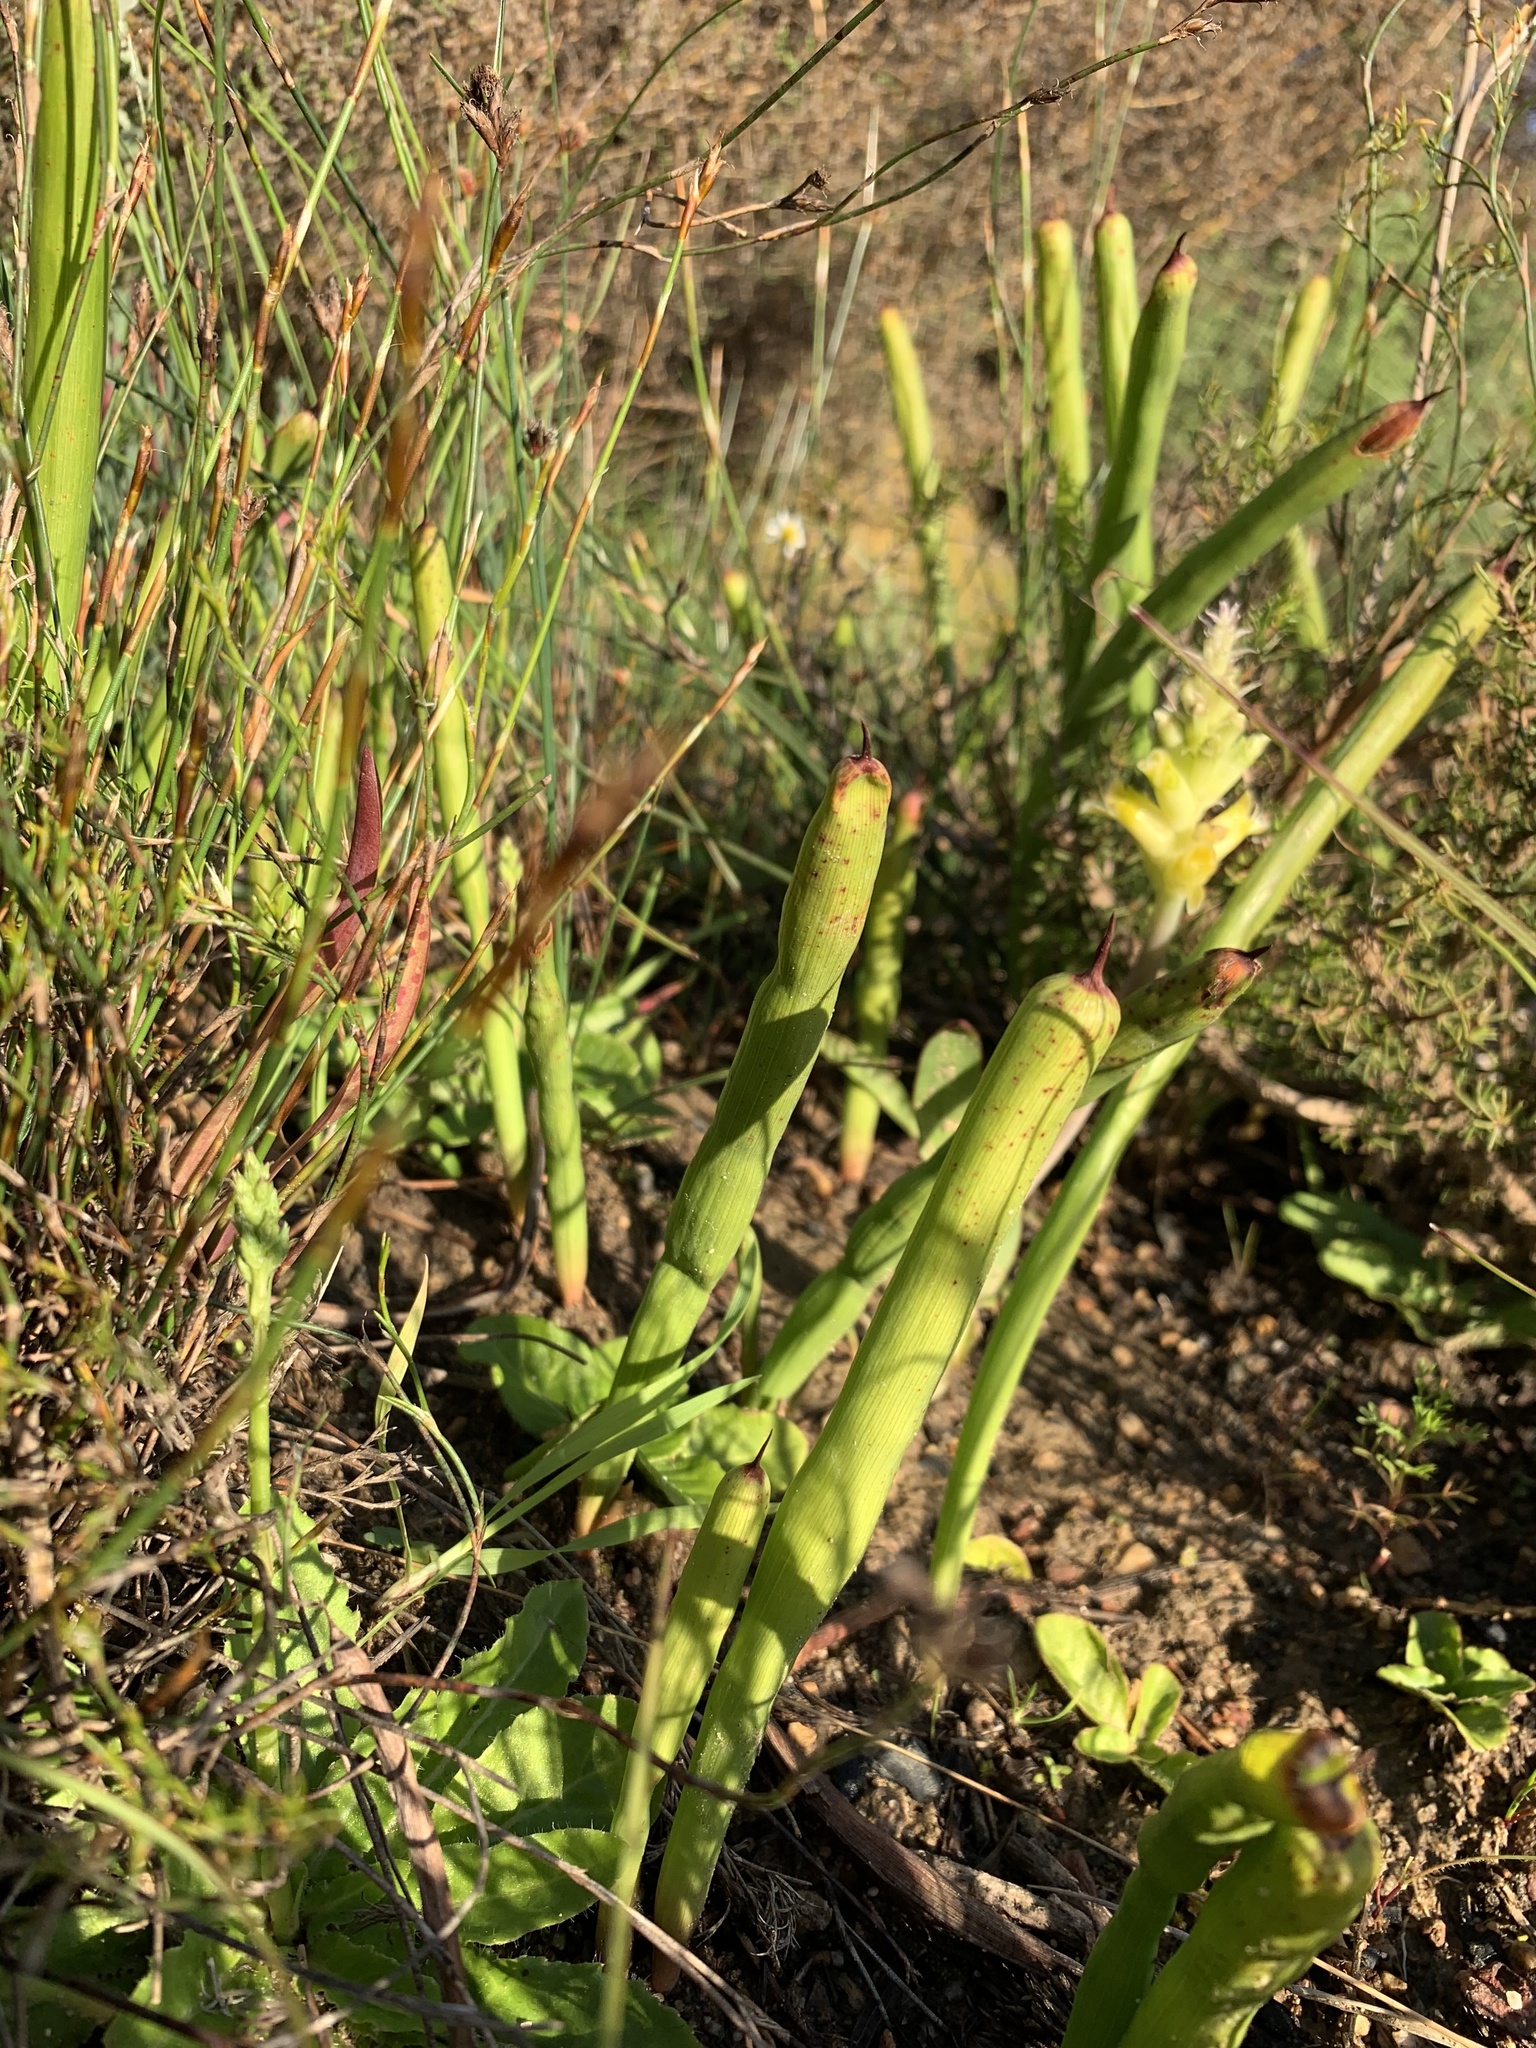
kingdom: Plantae
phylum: Tracheophyta
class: Liliopsida
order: Asparagales
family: Iridaceae
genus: Micranthus
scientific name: Micranthus tubulosus
